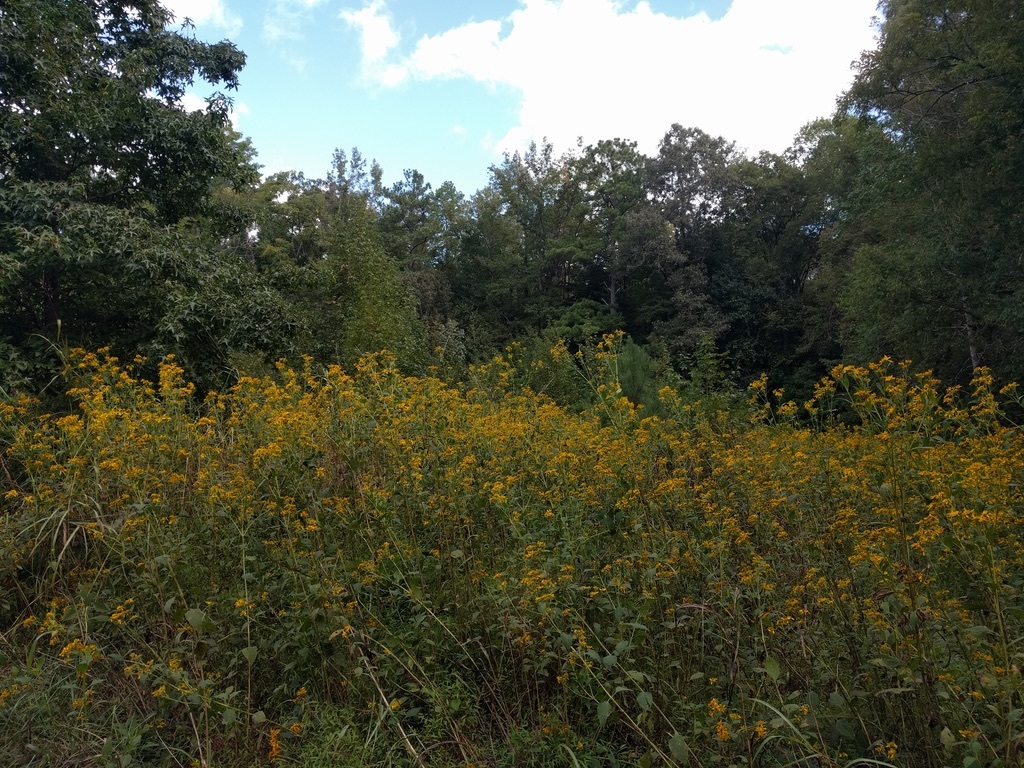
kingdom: Plantae
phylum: Tracheophyta
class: Magnoliopsida
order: Asterales
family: Asteraceae
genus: Verbesina
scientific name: Verbesina occidentalis
